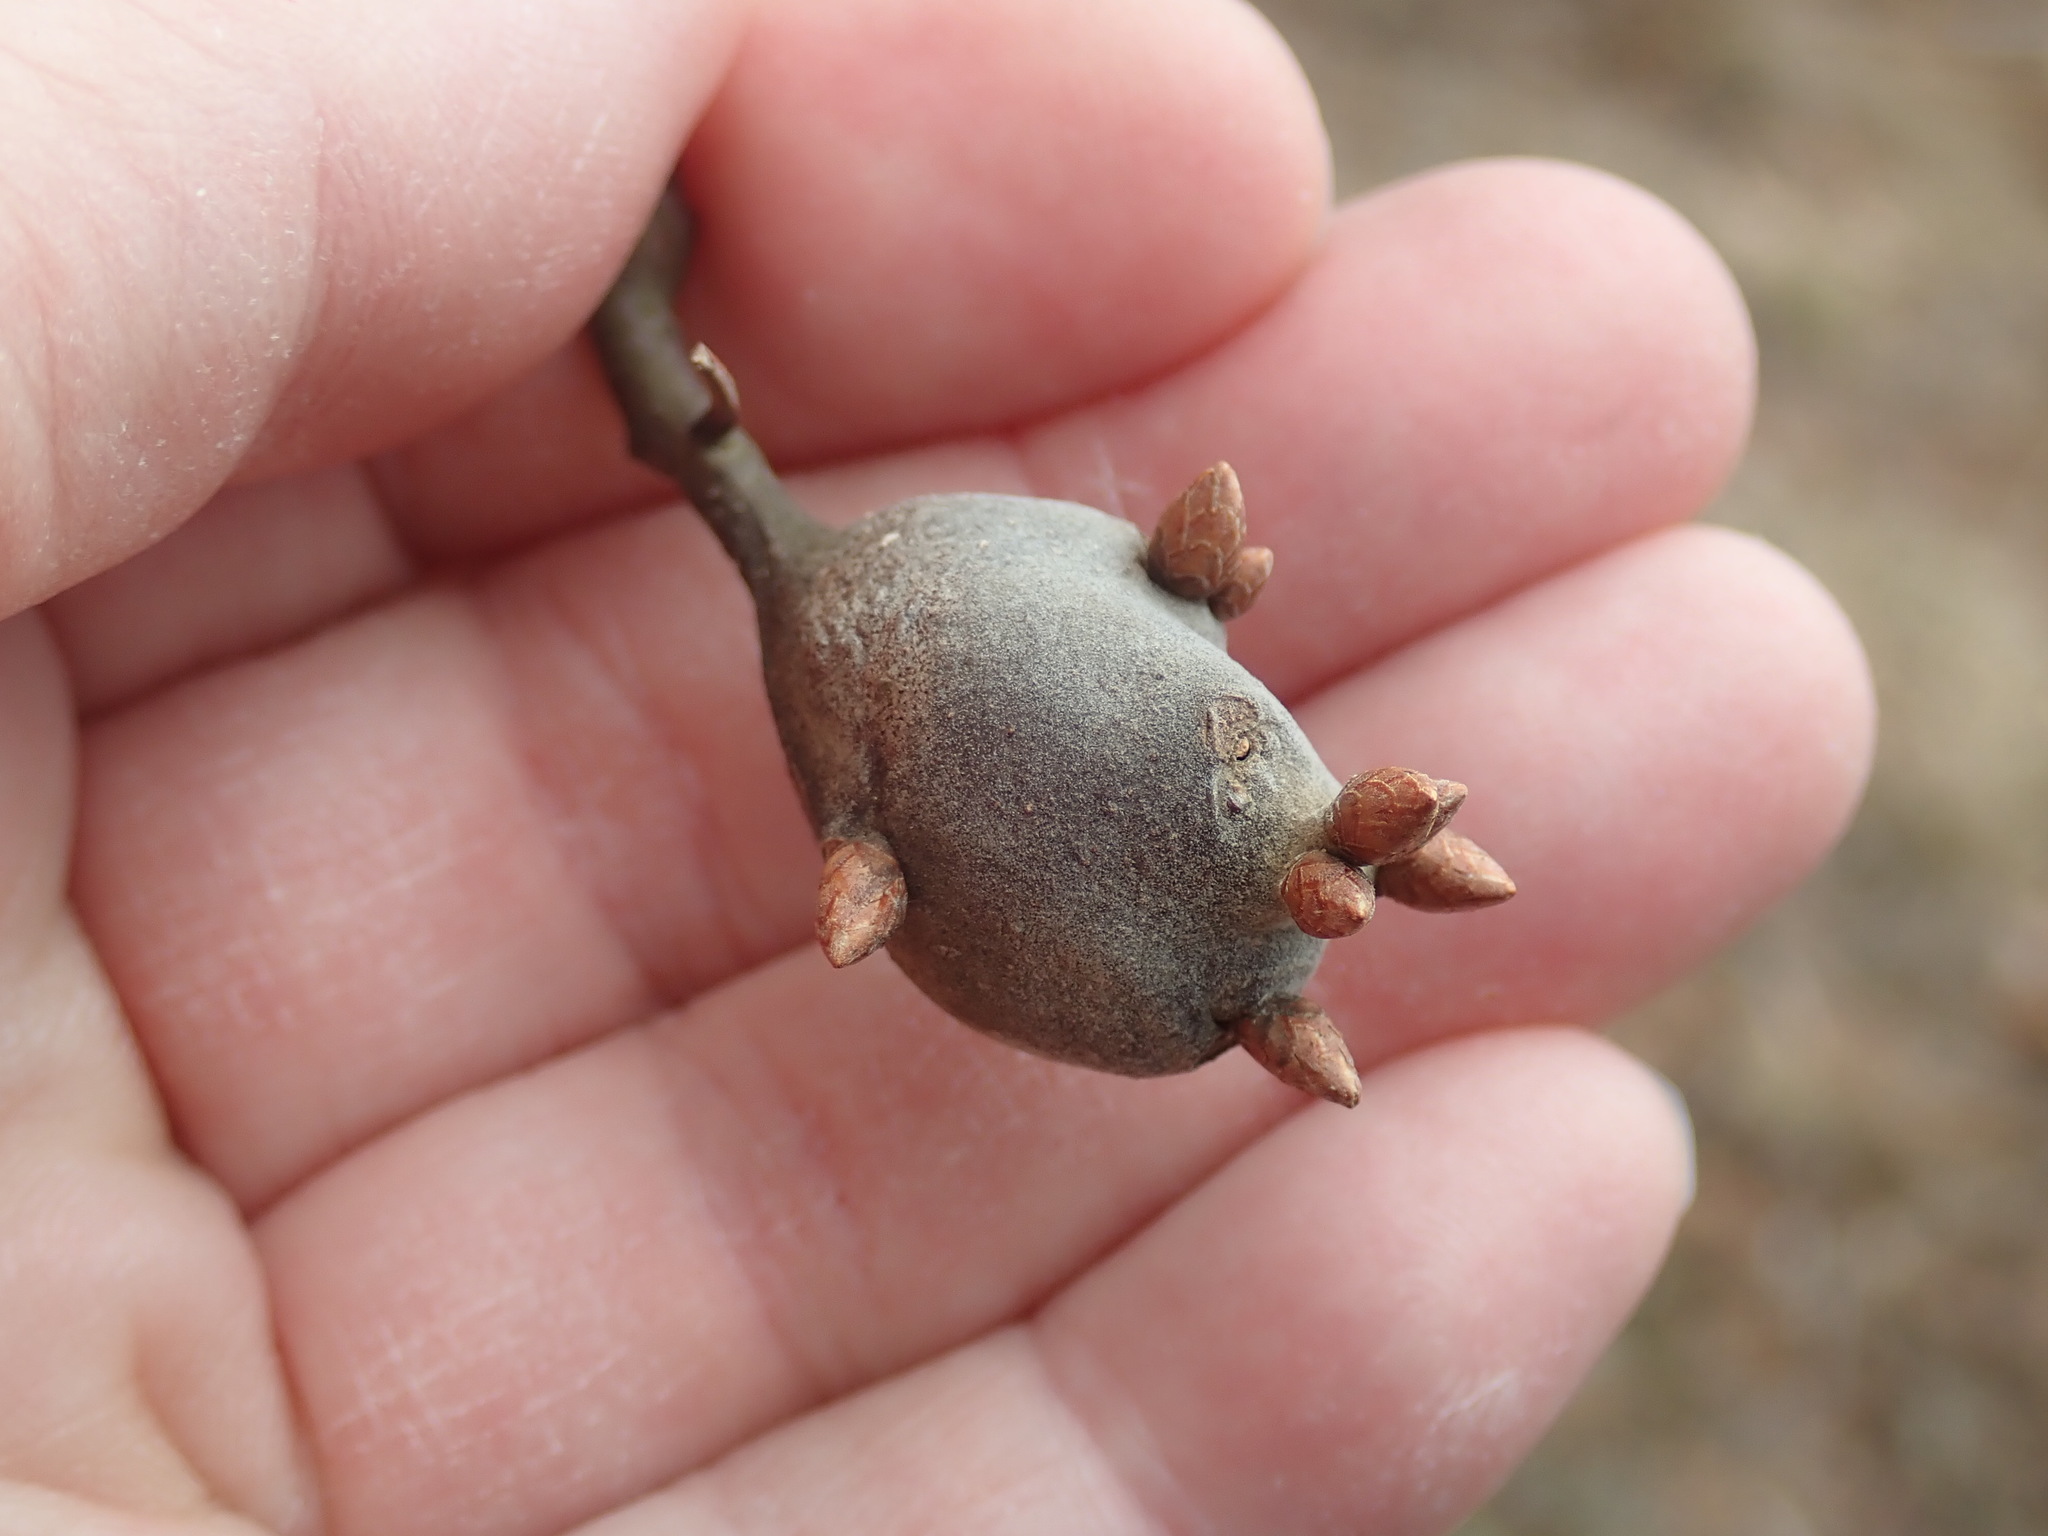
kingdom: Animalia
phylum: Arthropoda
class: Insecta
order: Hymenoptera
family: Cynipidae
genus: Zapatella
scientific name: Zapatella quercusphellos
